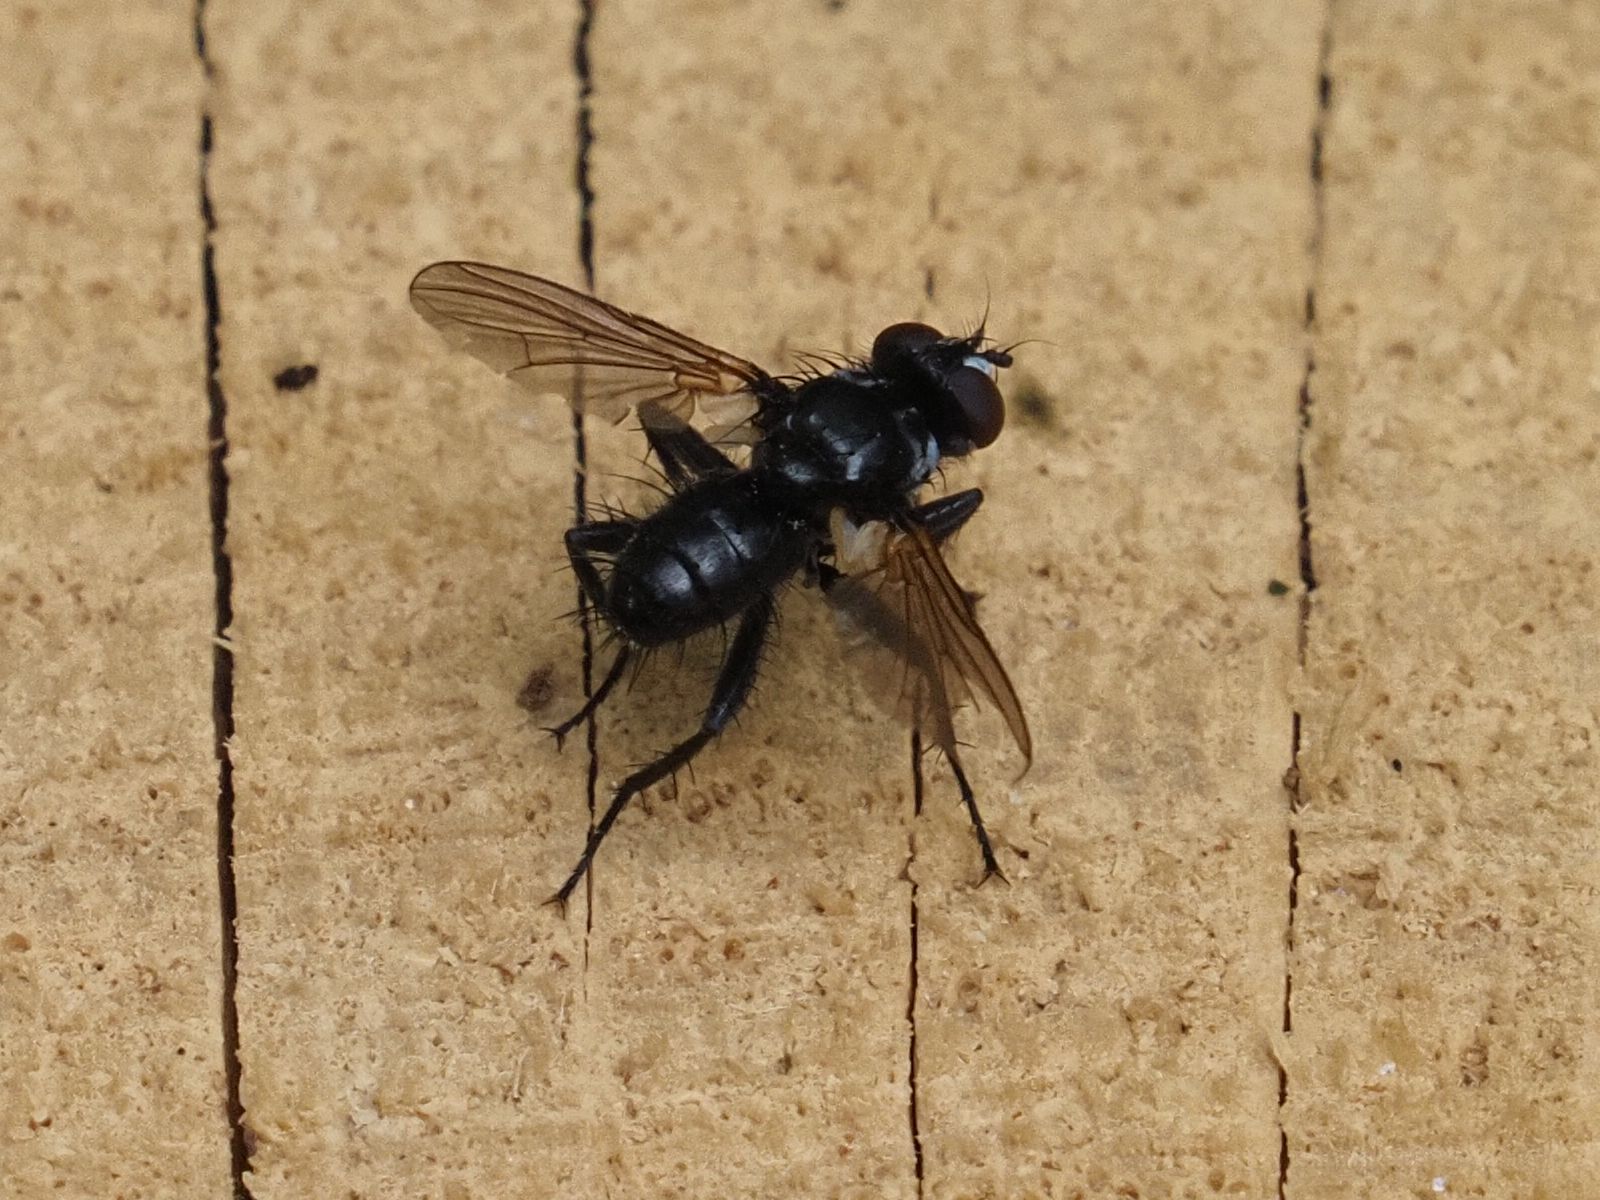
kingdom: Animalia
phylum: Arthropoda
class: Insecta
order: Diptera
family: Tachinidae
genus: Phania
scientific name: Phania funesta
